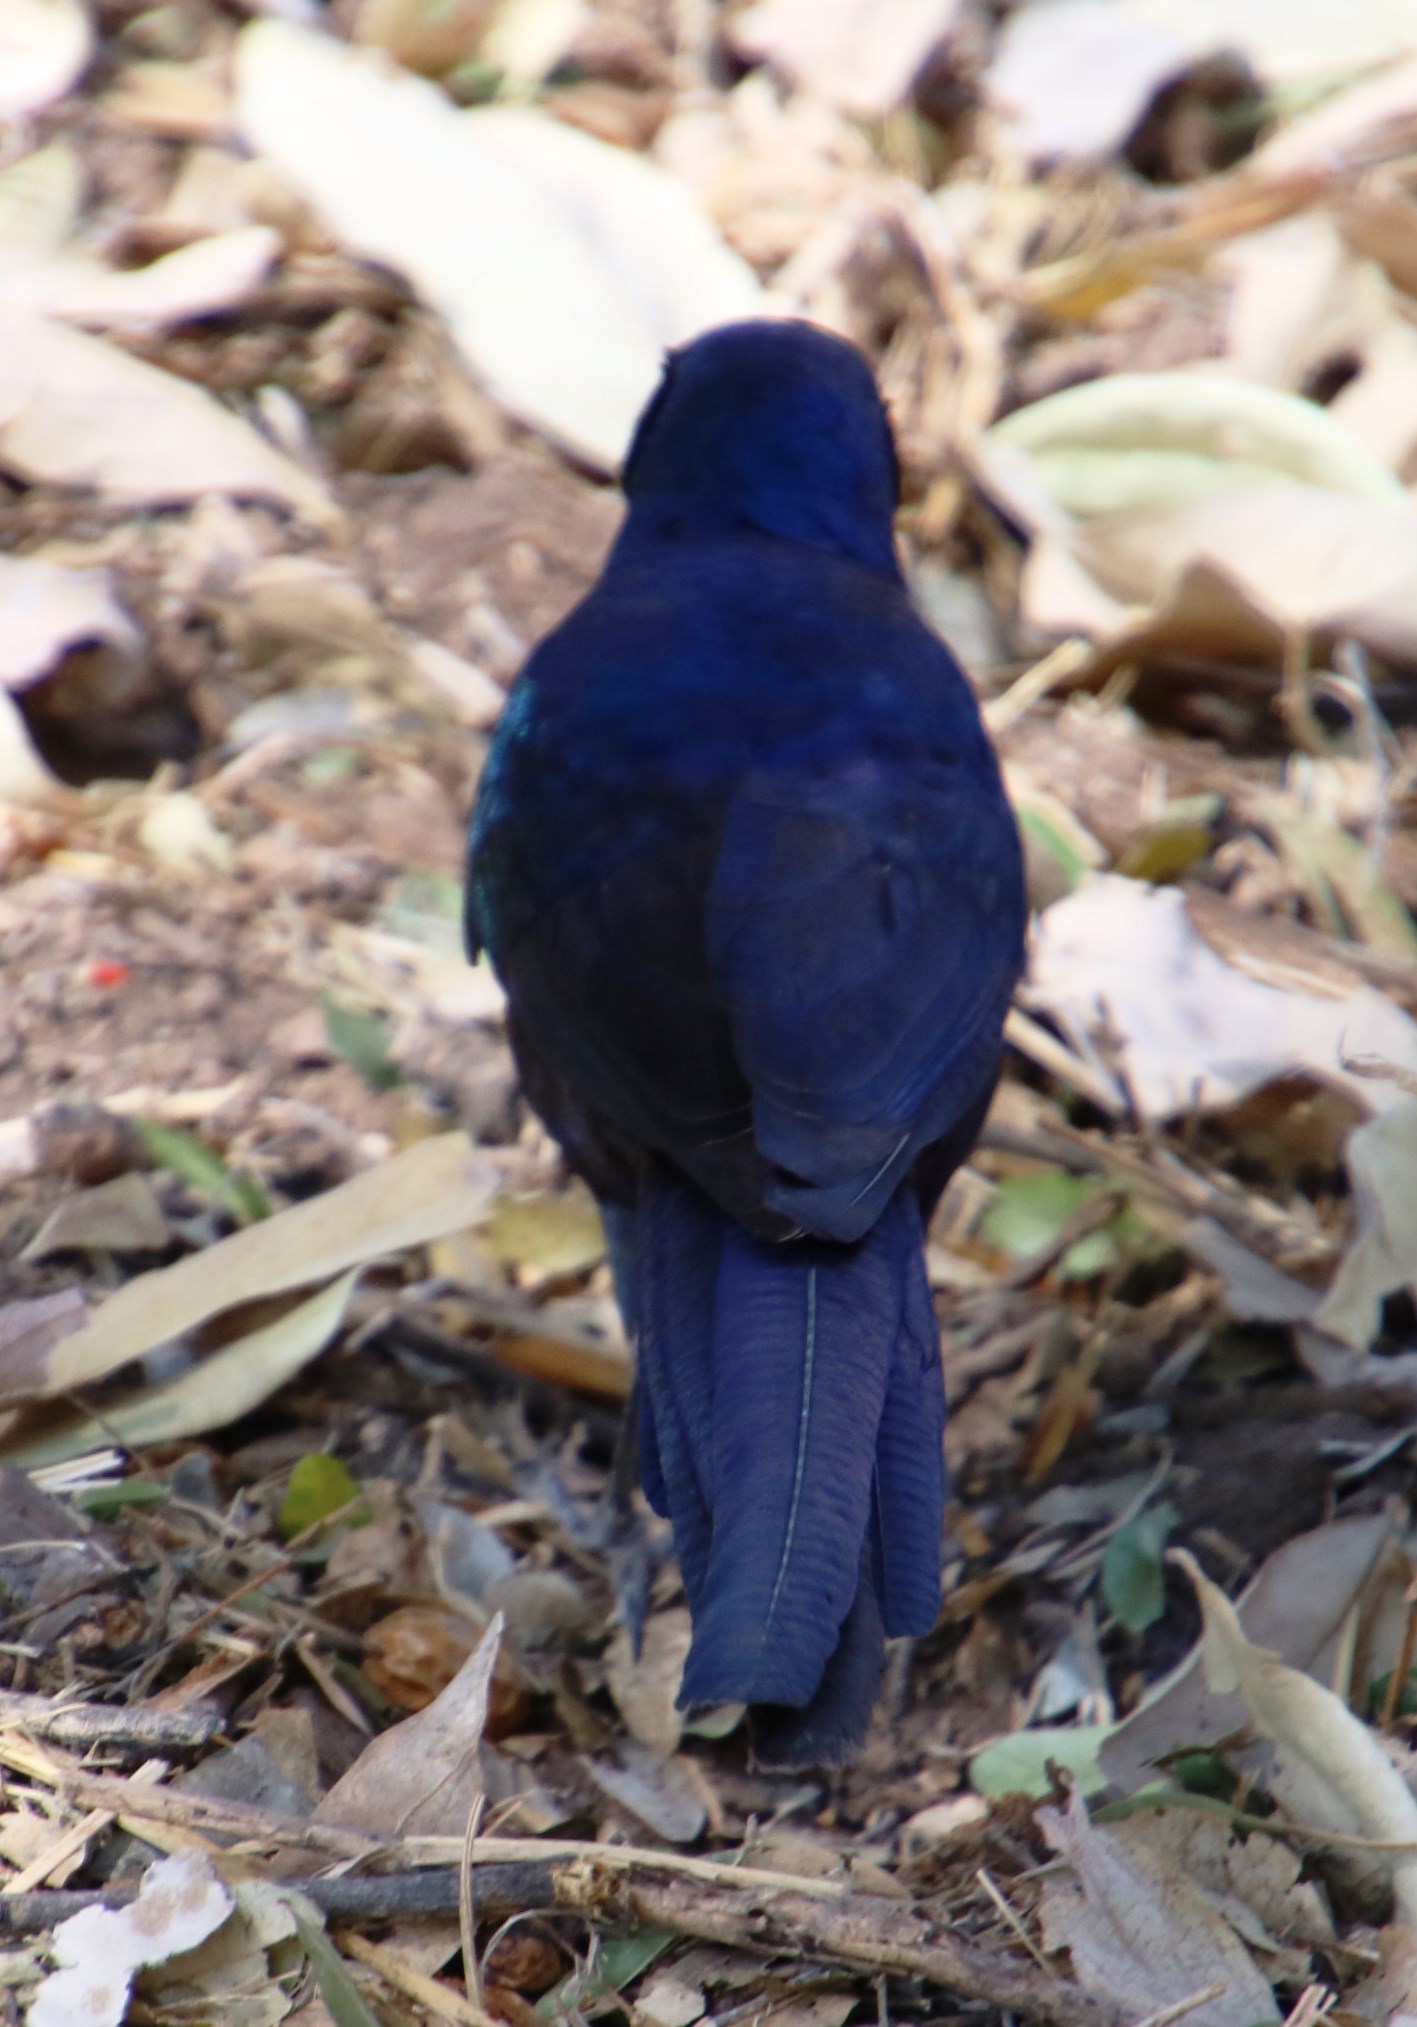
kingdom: Animalia
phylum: Chordata
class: Aves
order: Passeriformes
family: Sturnidae
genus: Lamprotornis
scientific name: Lamprotornis mevesii
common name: Meves's starling
